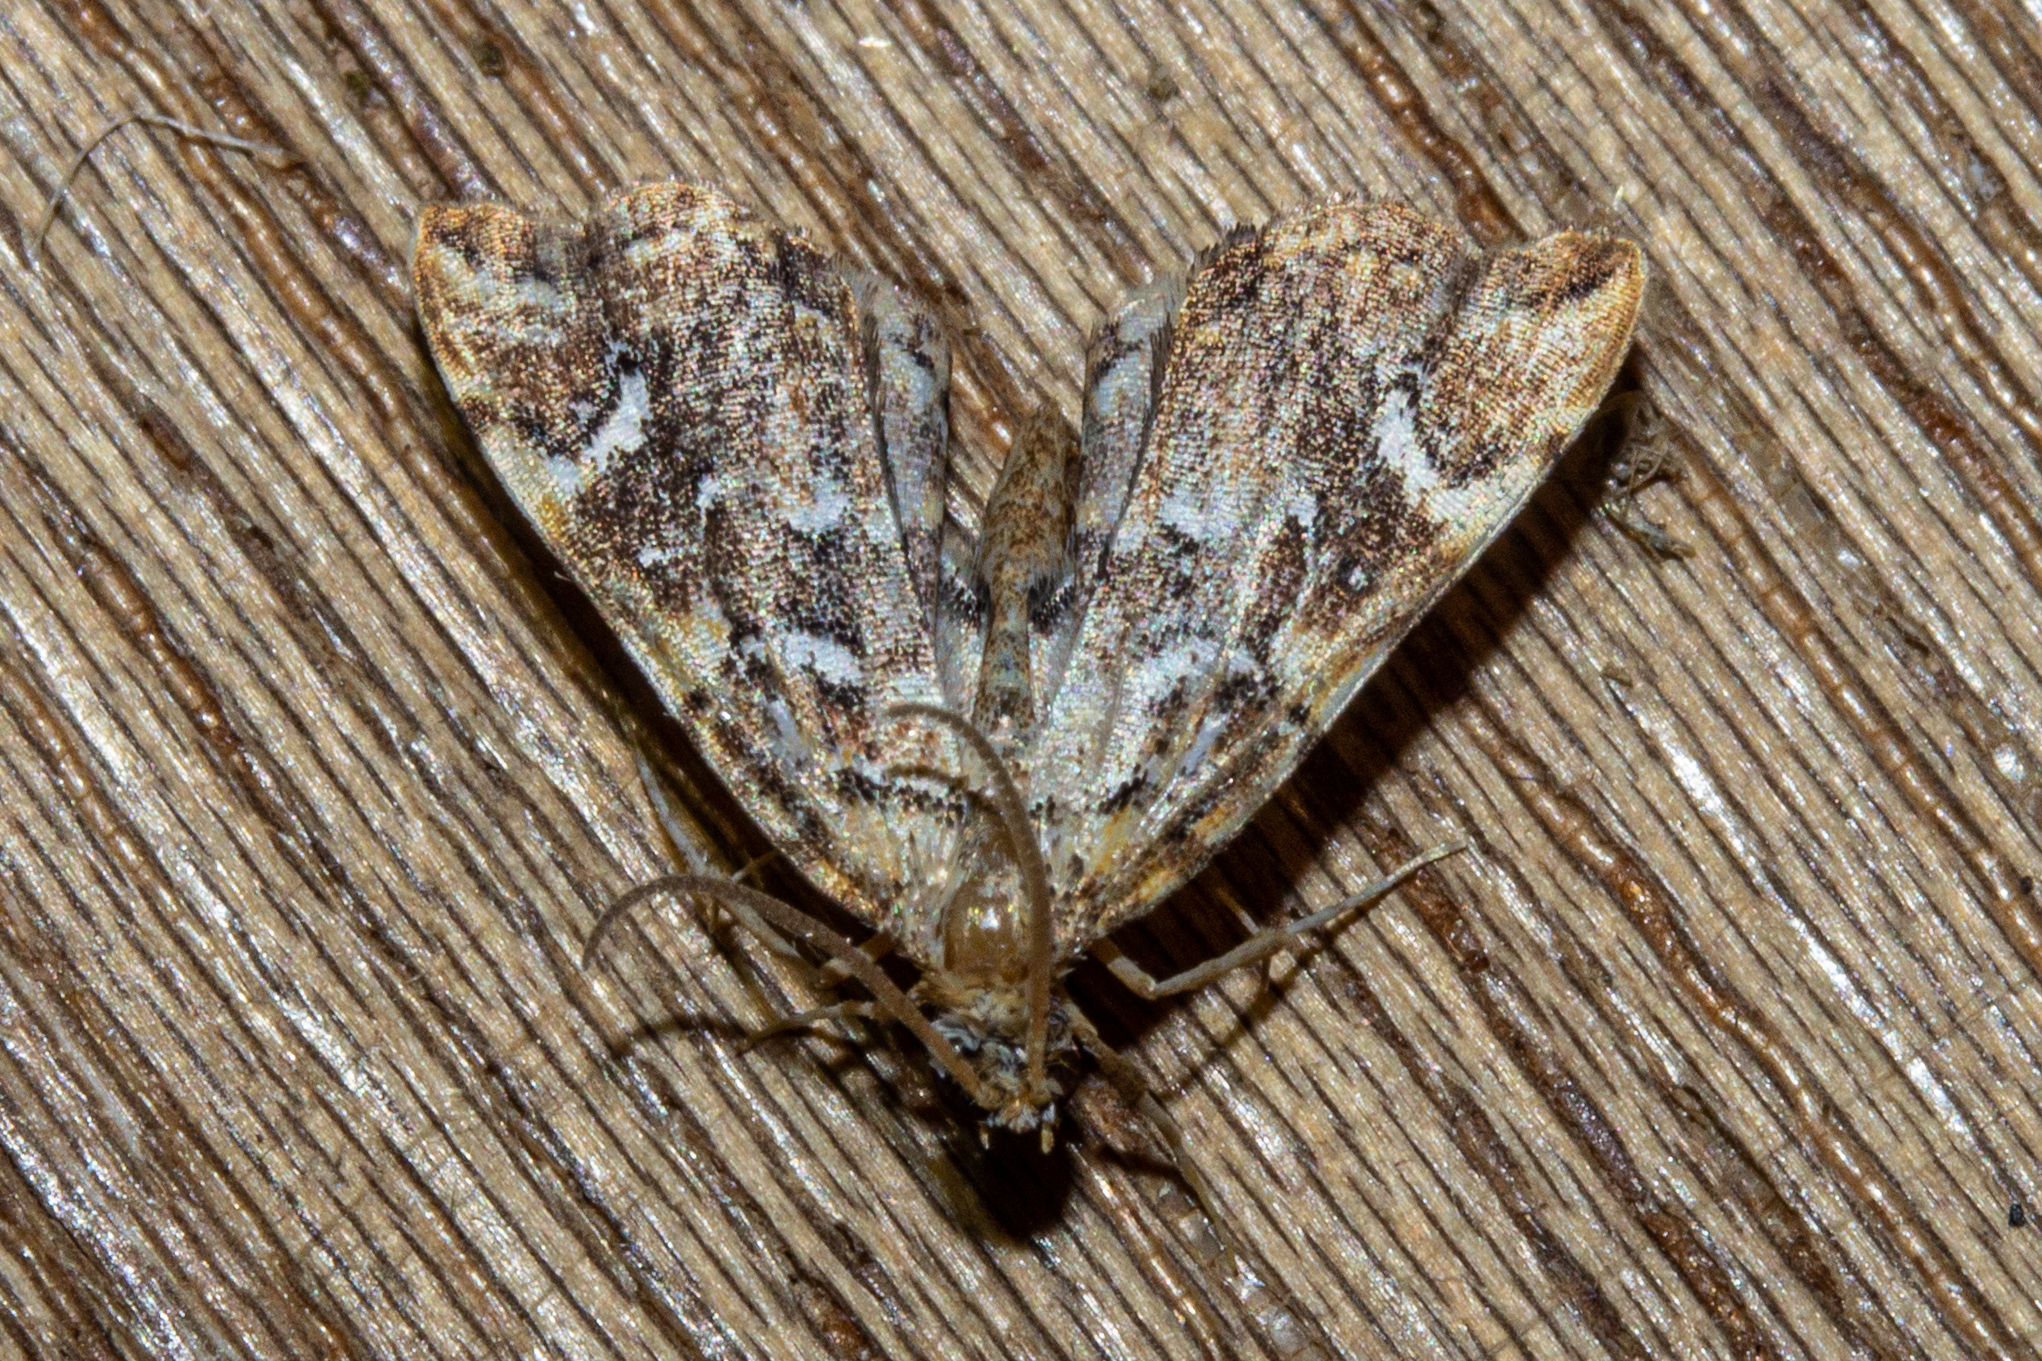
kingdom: Animalia
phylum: Arthropoda
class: Insecta
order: Lepidoptera
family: Pyralidae
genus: Musotima
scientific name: Musotima nitidalis
